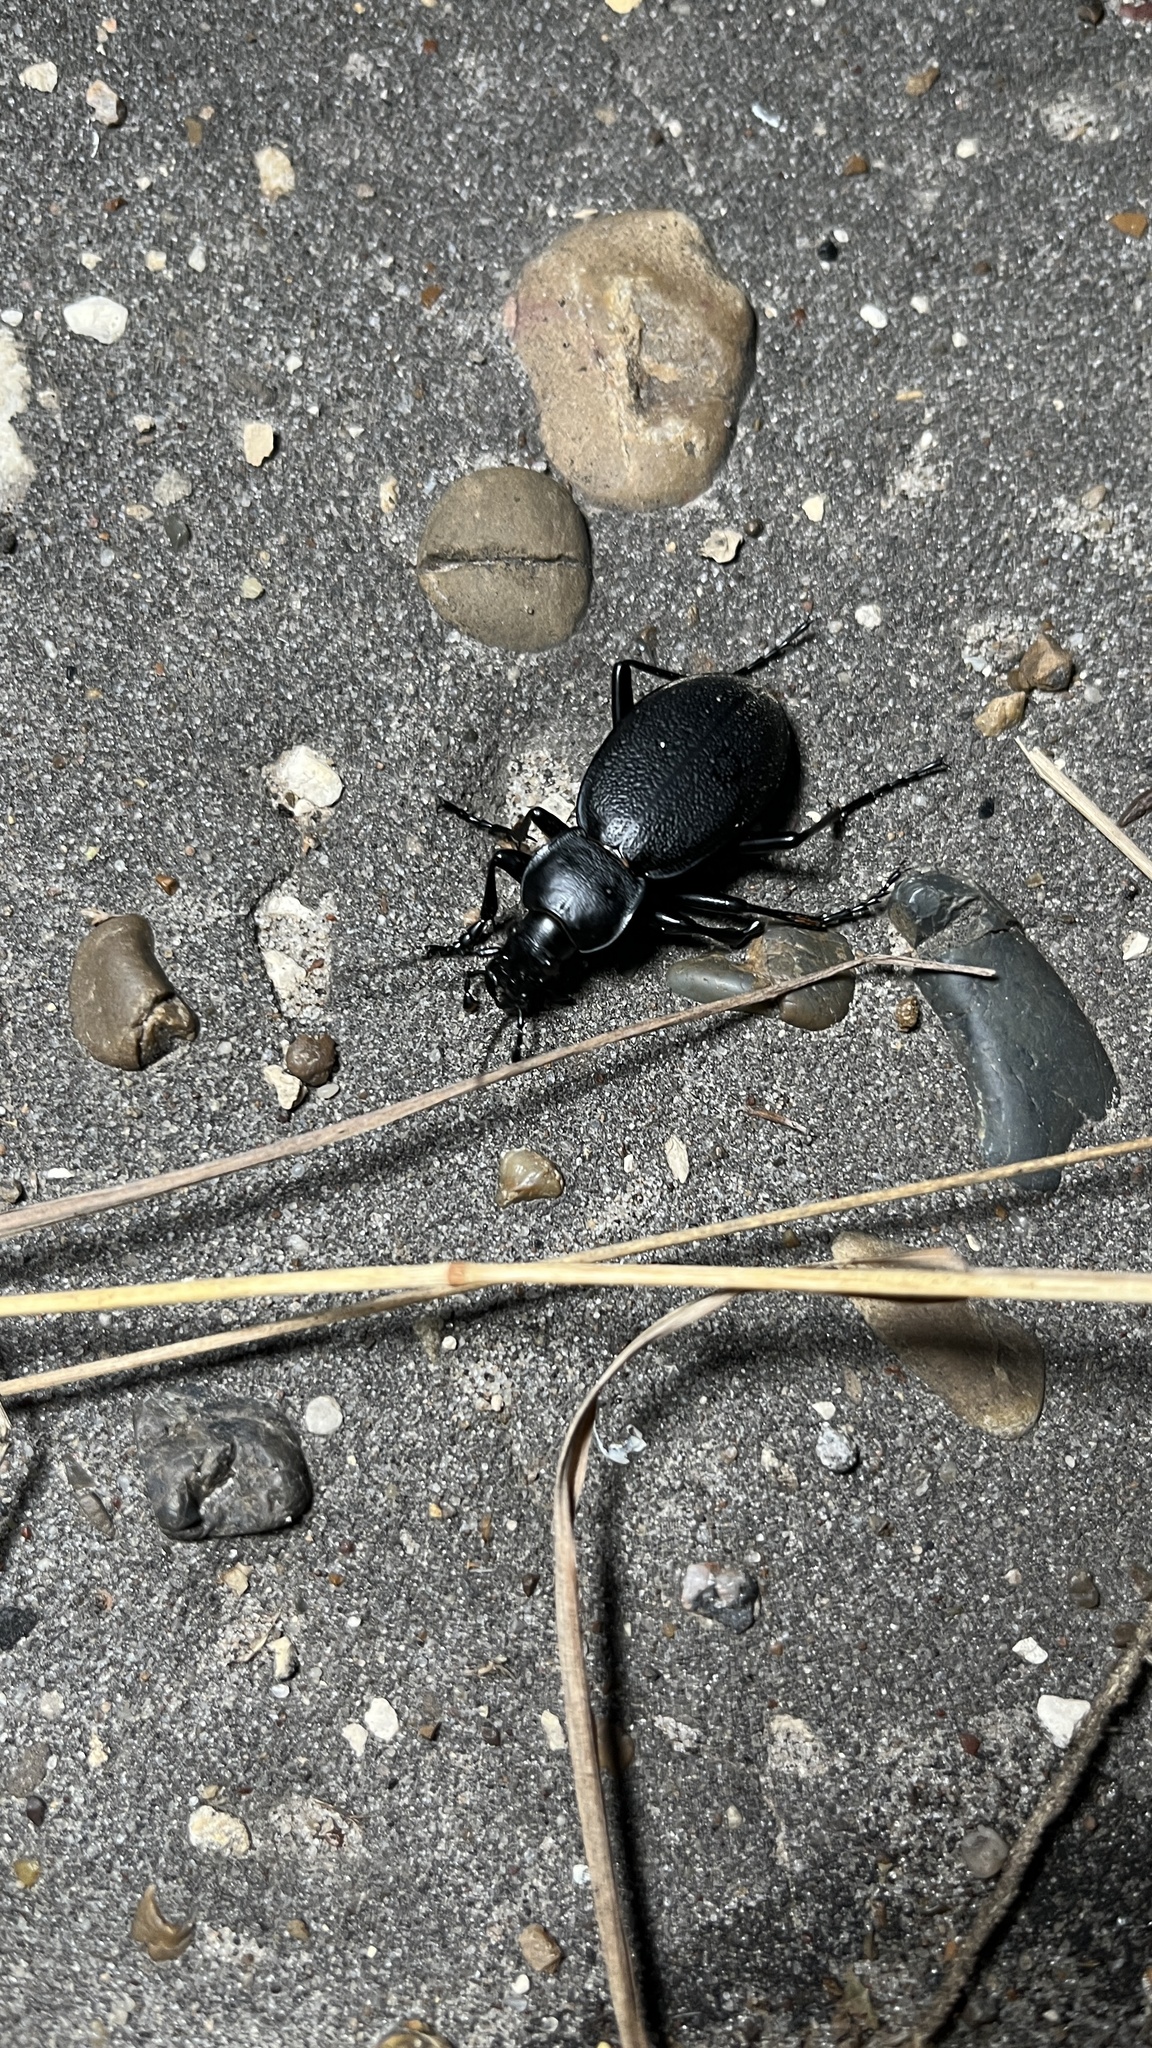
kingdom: Animalia
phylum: Arthropoda
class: Insecta
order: Coleoptera
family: Carabidae
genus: Carabus
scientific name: Carabus coriaceus
